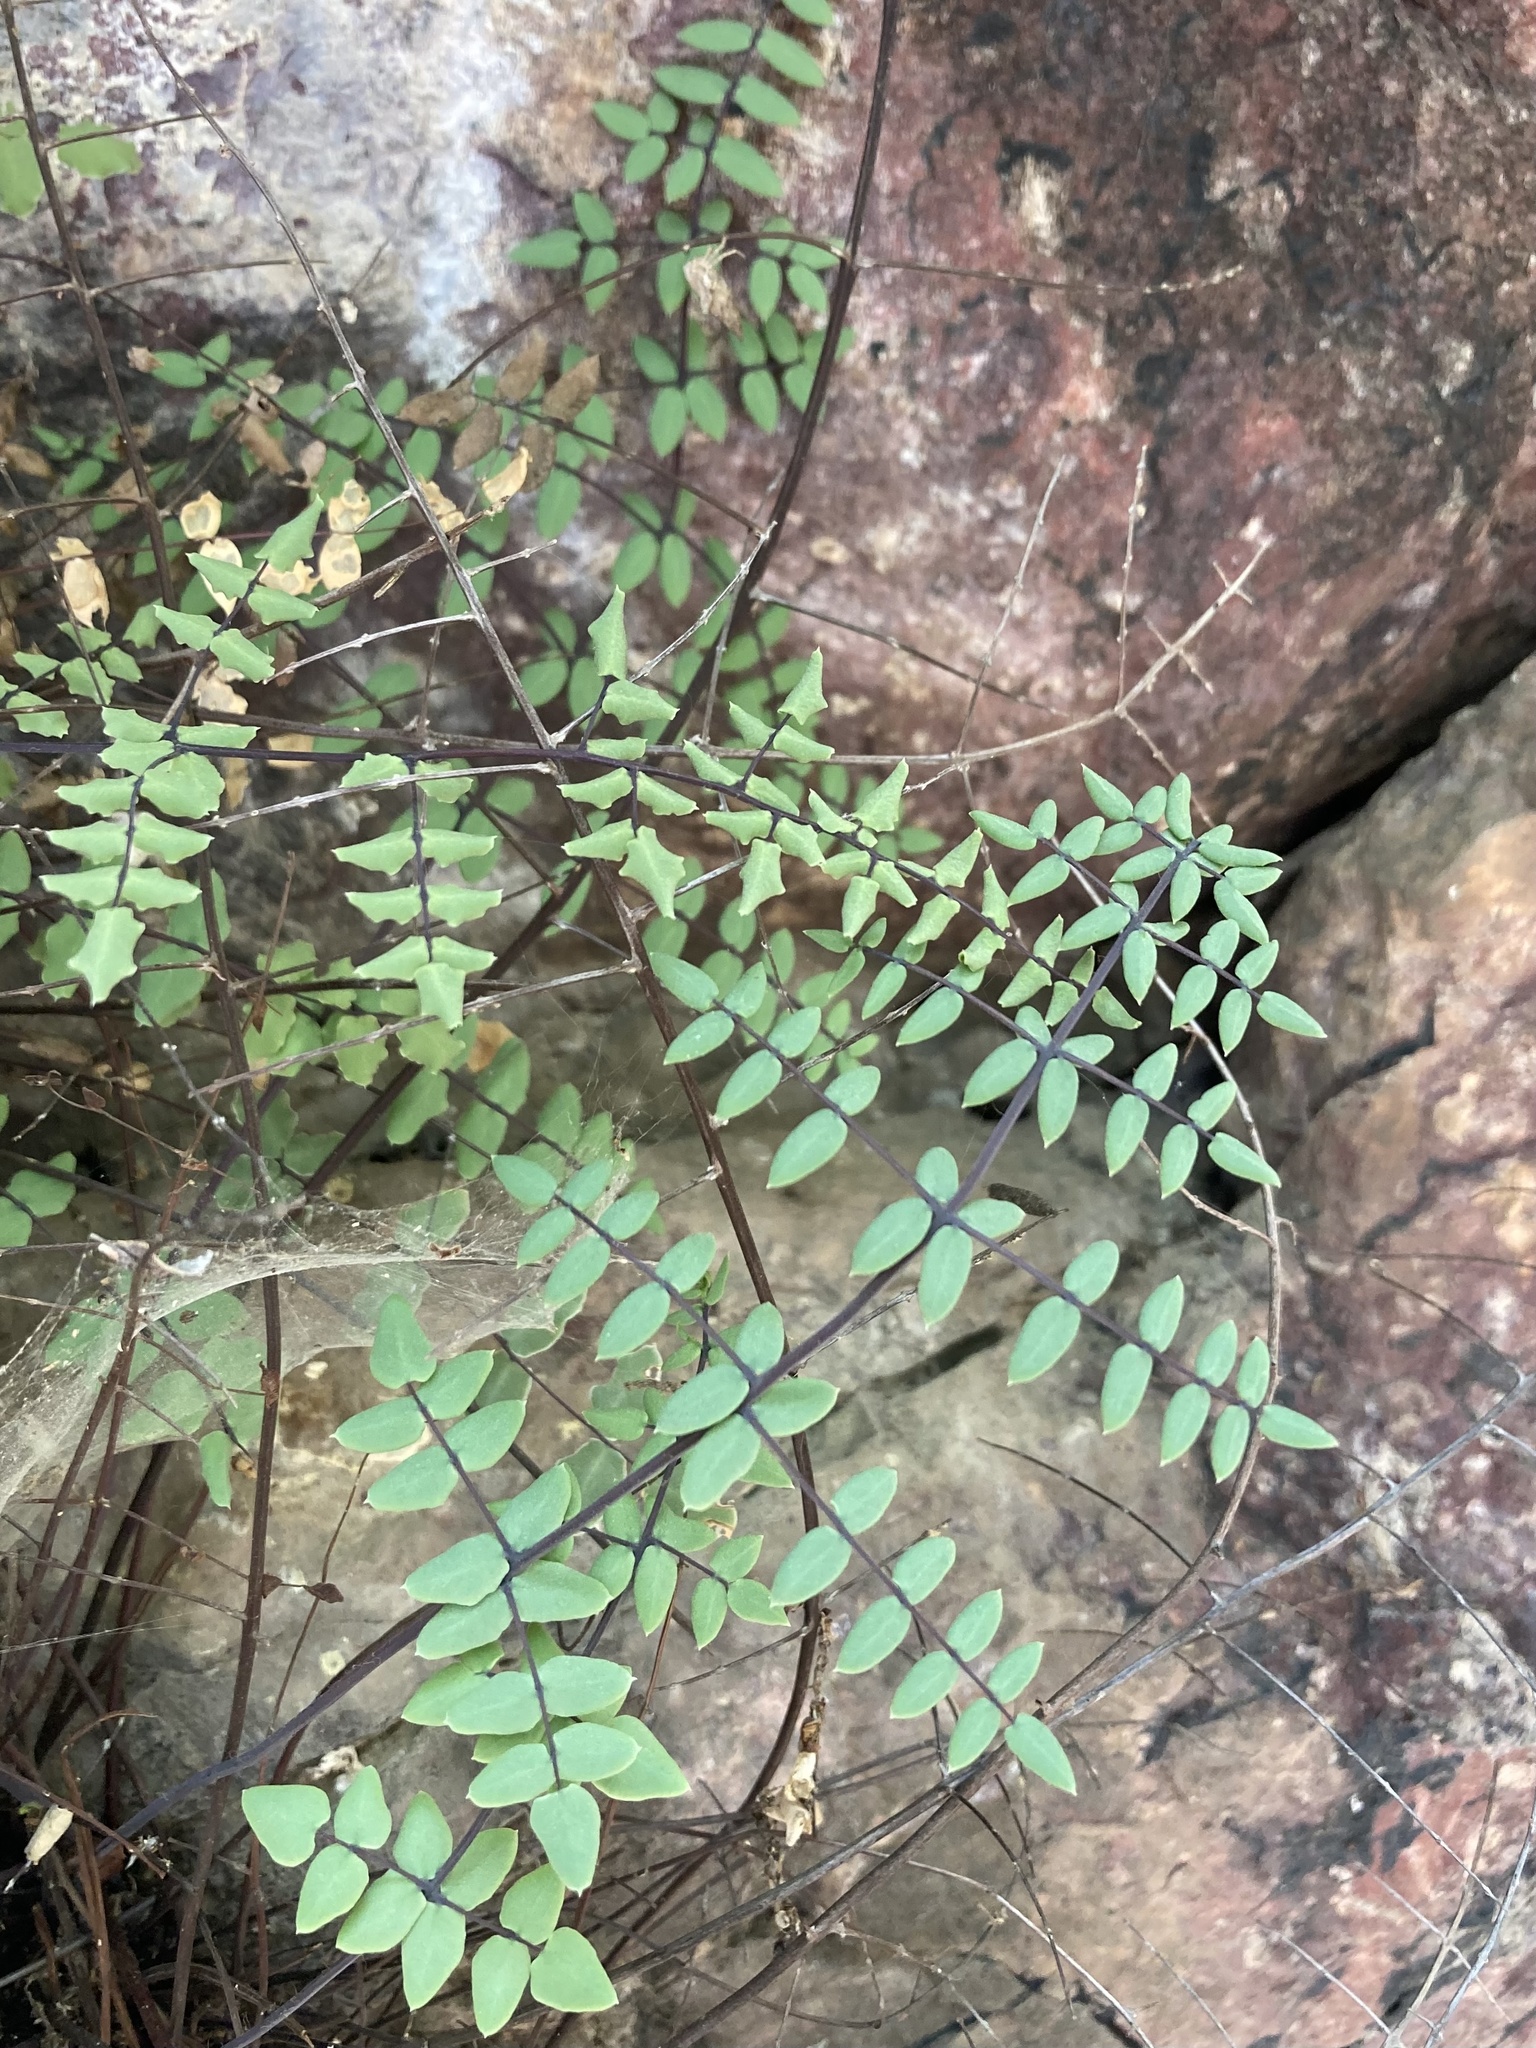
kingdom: Plantae
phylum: Tracheophyta
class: Polypodiopsida
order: Polypodiales
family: Pteridaceae
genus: Pellaea
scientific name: Pellaea truncata
